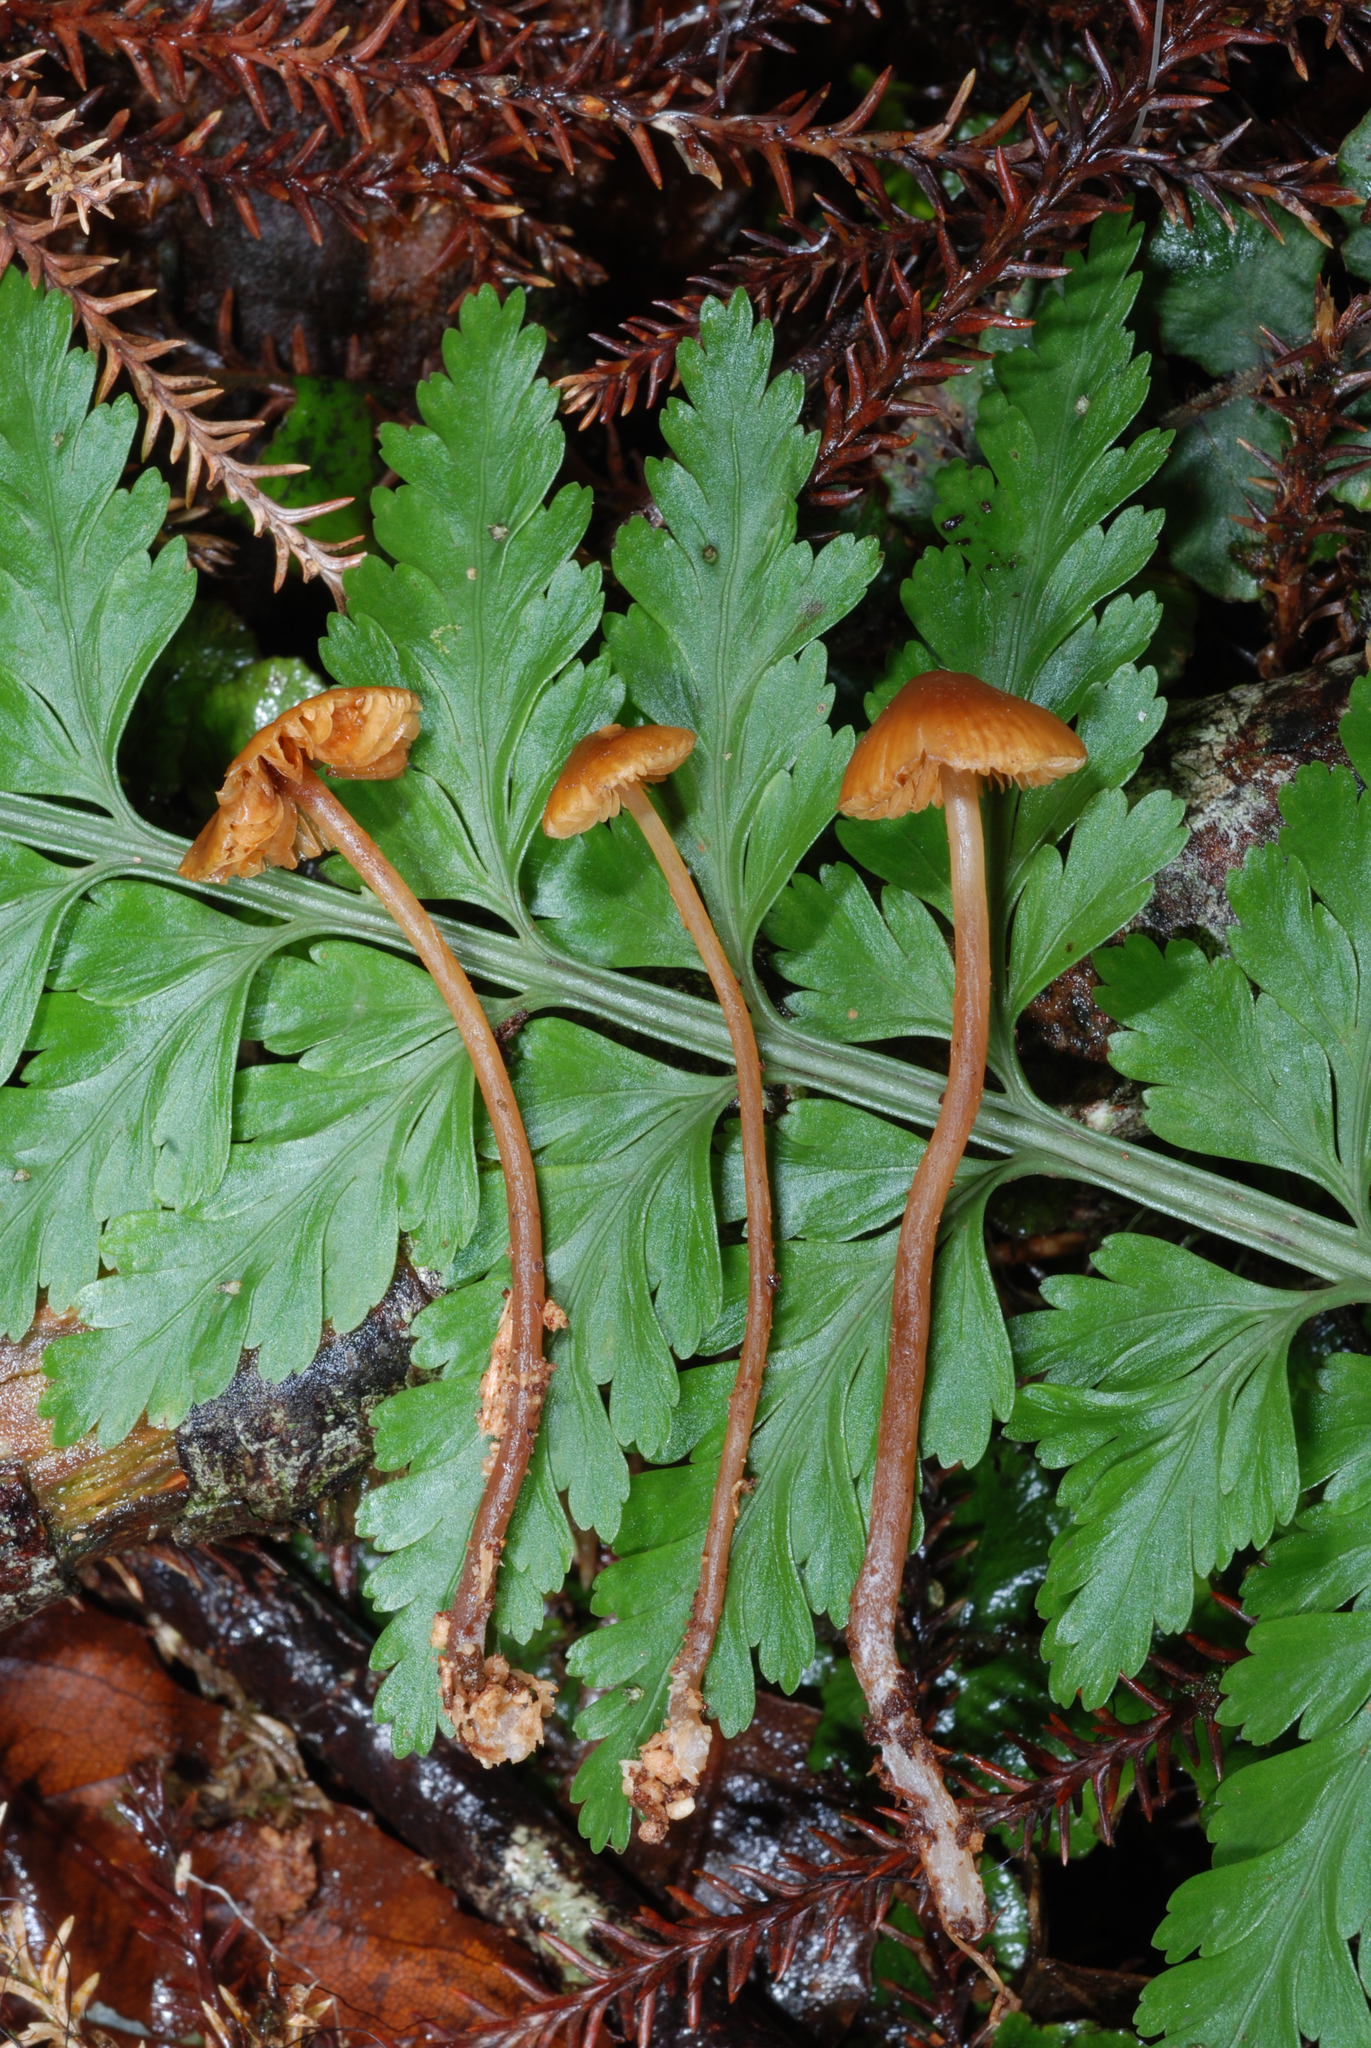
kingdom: Fungi
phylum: Basidiomycota
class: Agaricomycetes
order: Agaricales
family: Hymenogastraceae
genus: Phaeocollybia
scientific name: Phaeocollybia elegans
